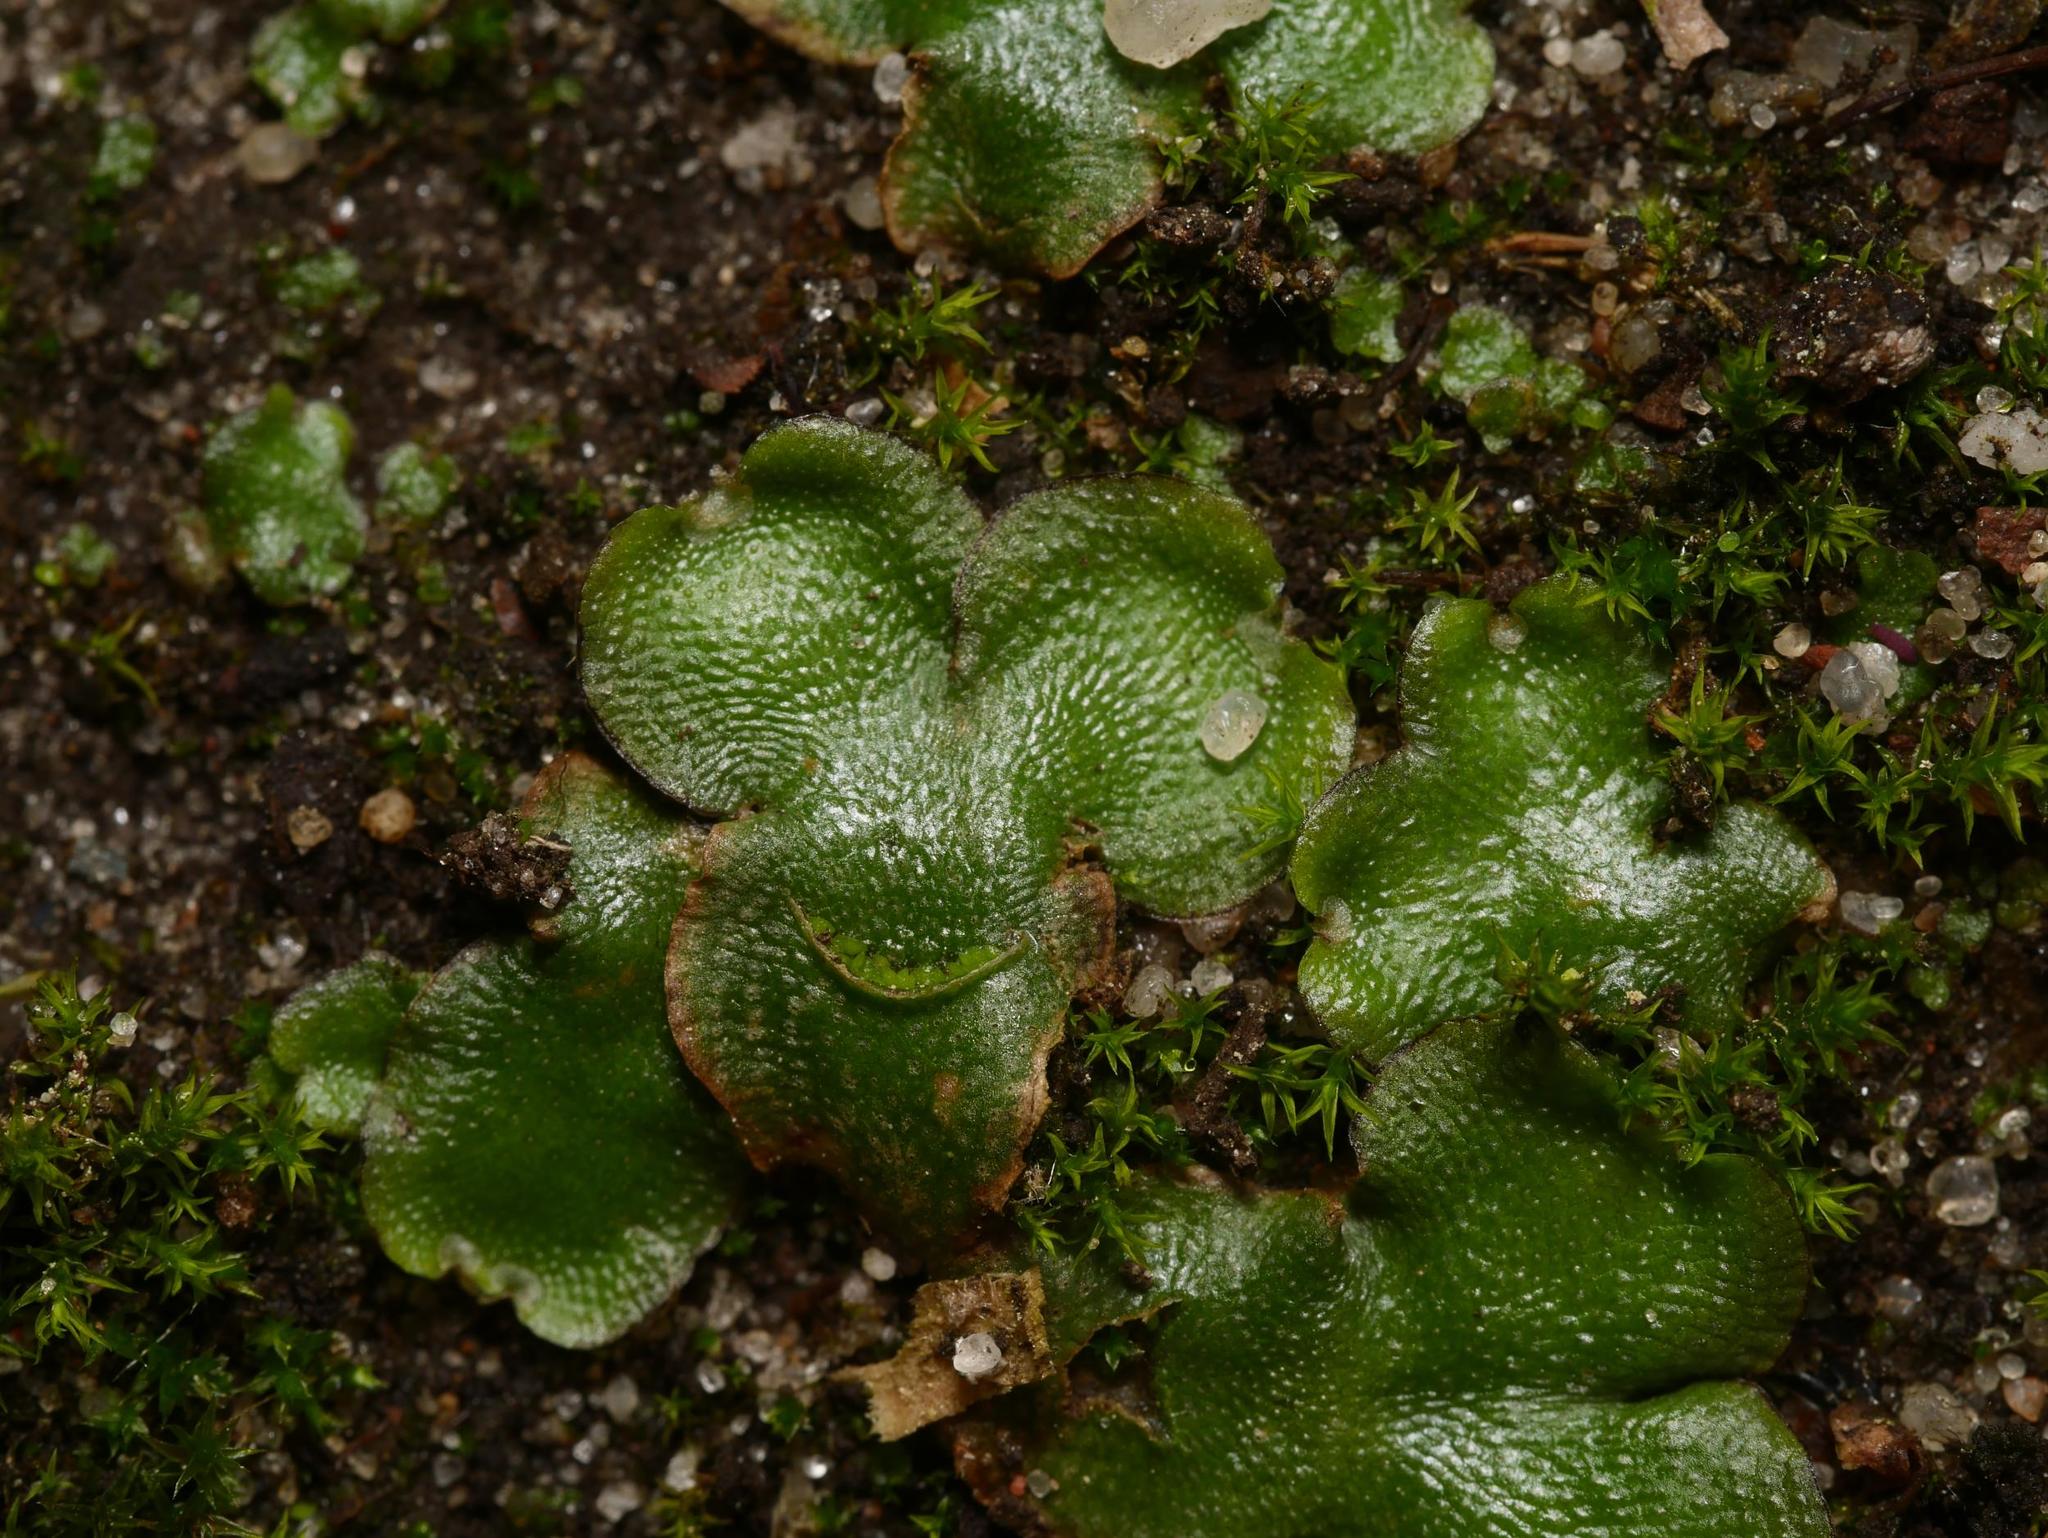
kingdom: Plantae
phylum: Marchantiophyta
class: Marchantiopsida
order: Lunulariales
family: Lunulariaceae
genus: Lunularia
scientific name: Lunularia cruciata
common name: Crescent-cup liverwort
